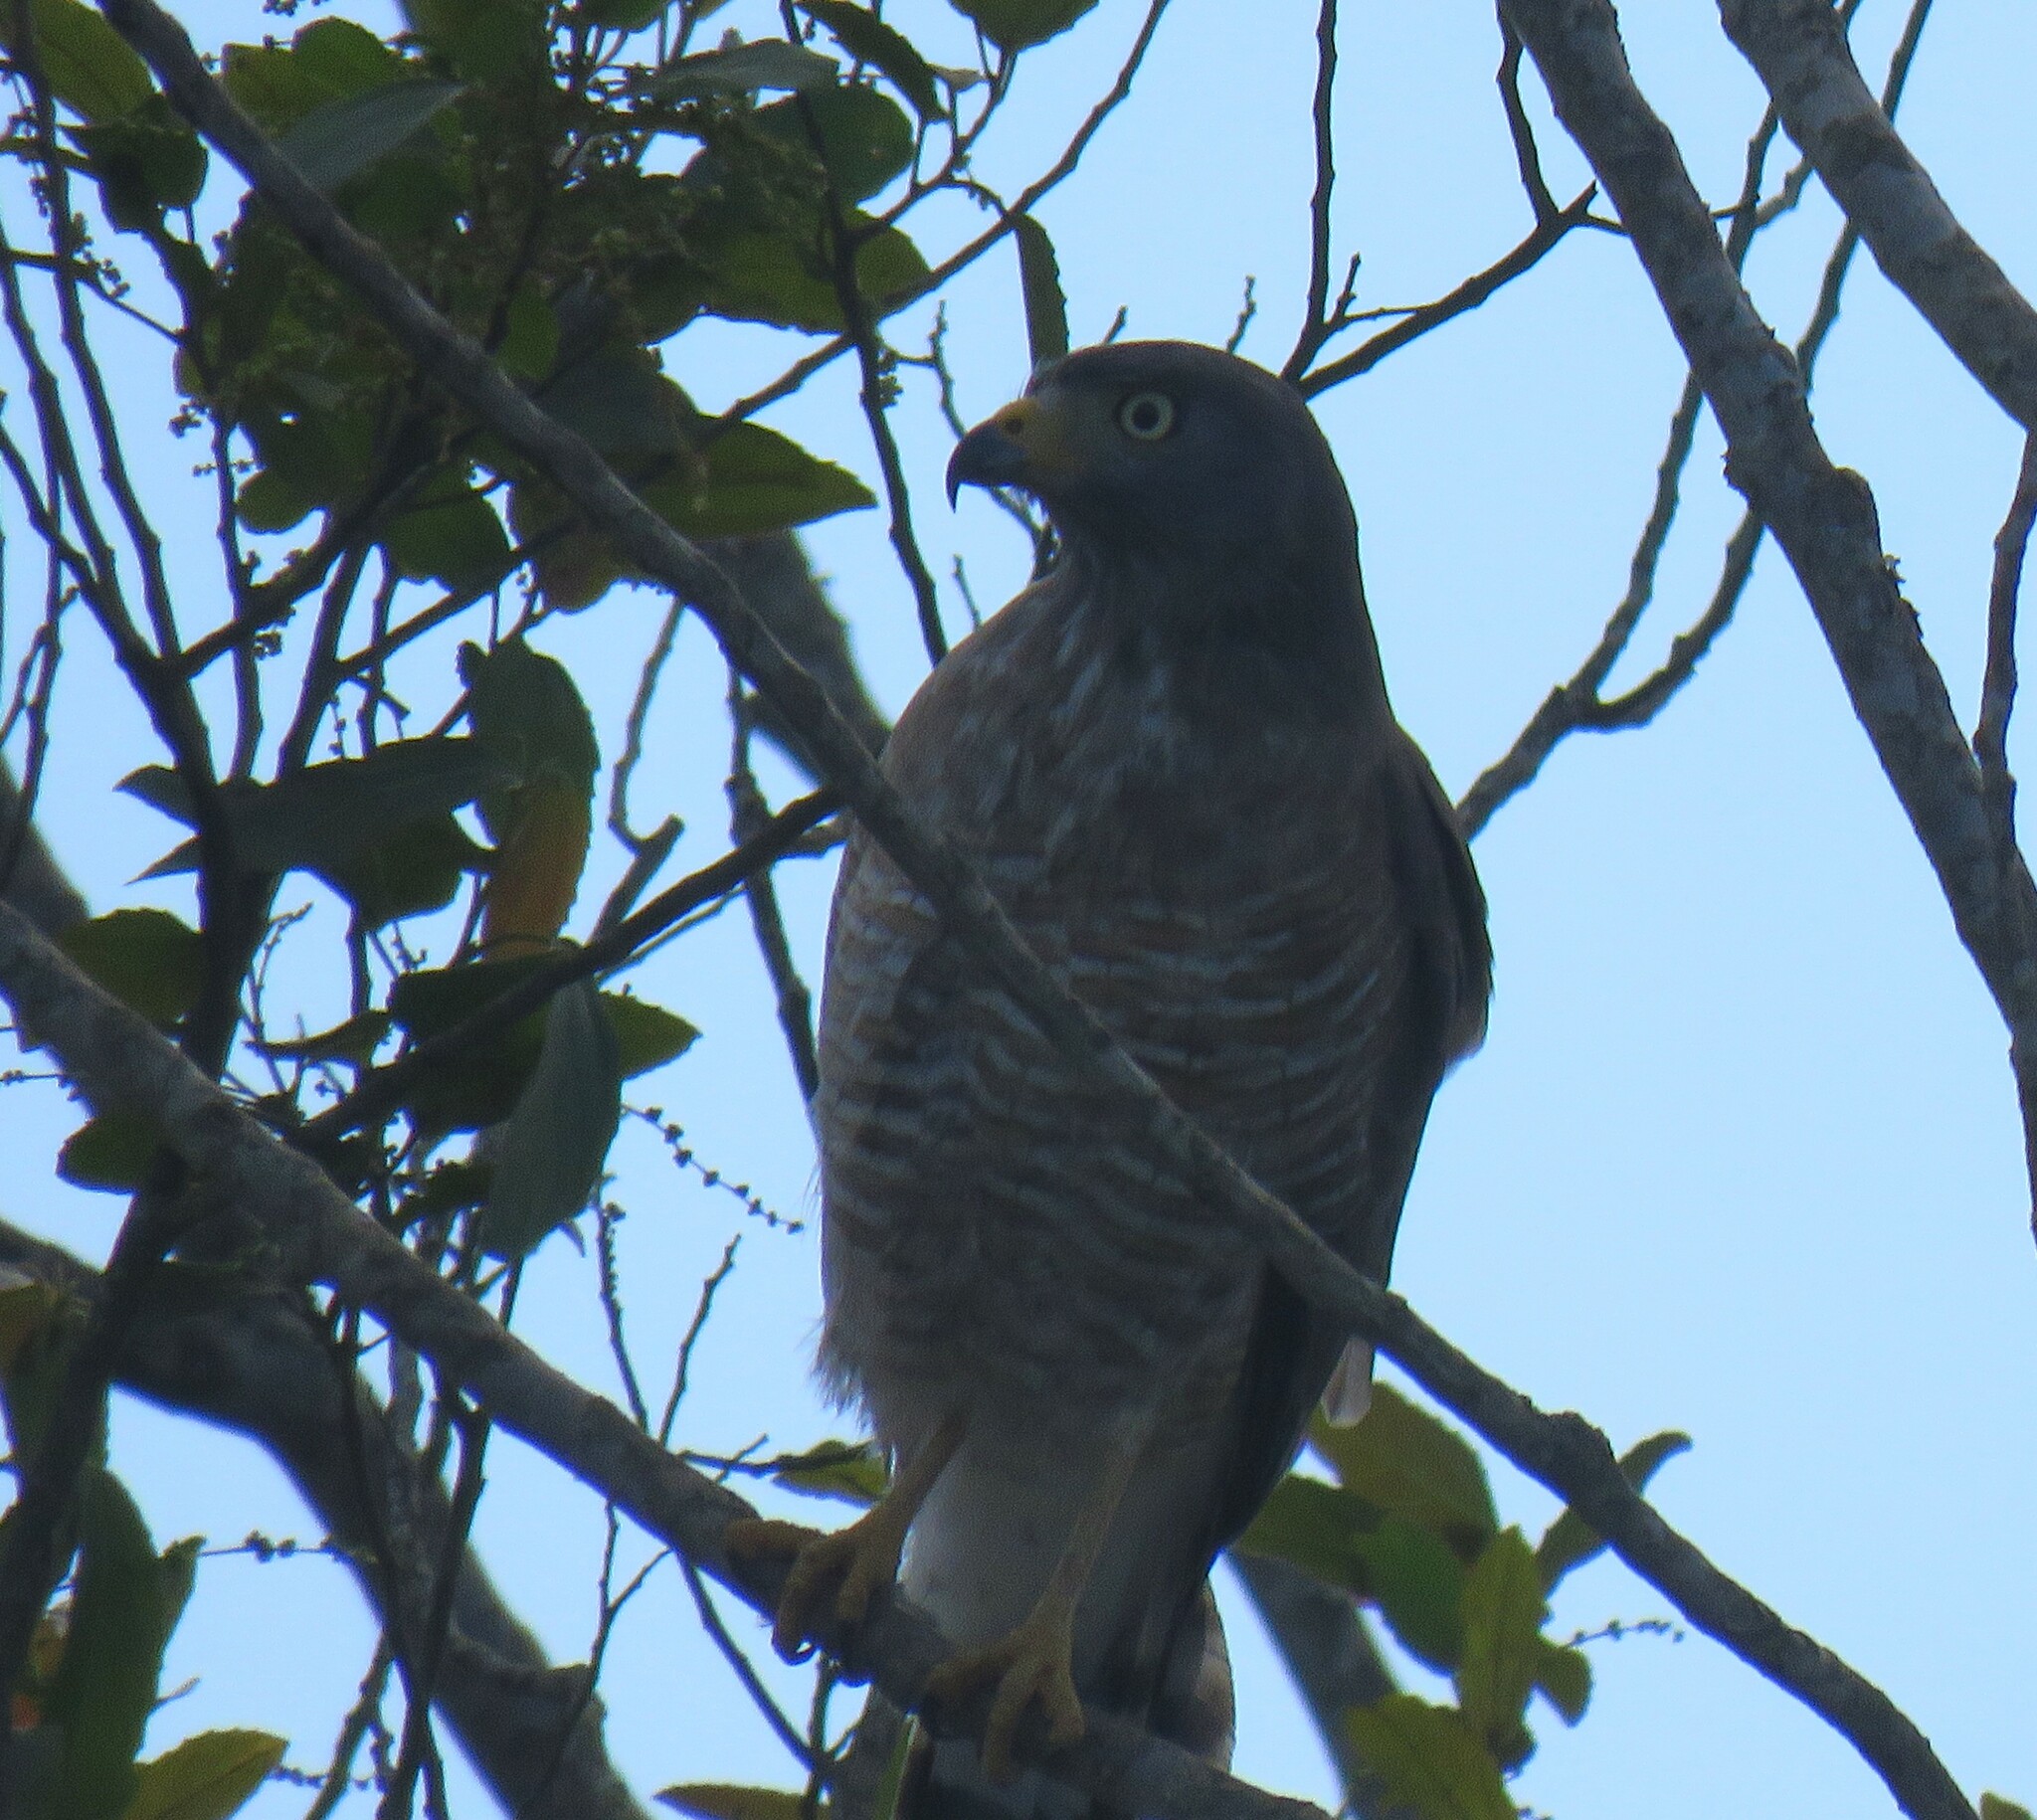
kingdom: Animalia
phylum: Chordata
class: Aves
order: Accipitriformes
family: Accipitridae
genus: Rupornis
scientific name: Rupornis magnirostris
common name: Roadside hawk
